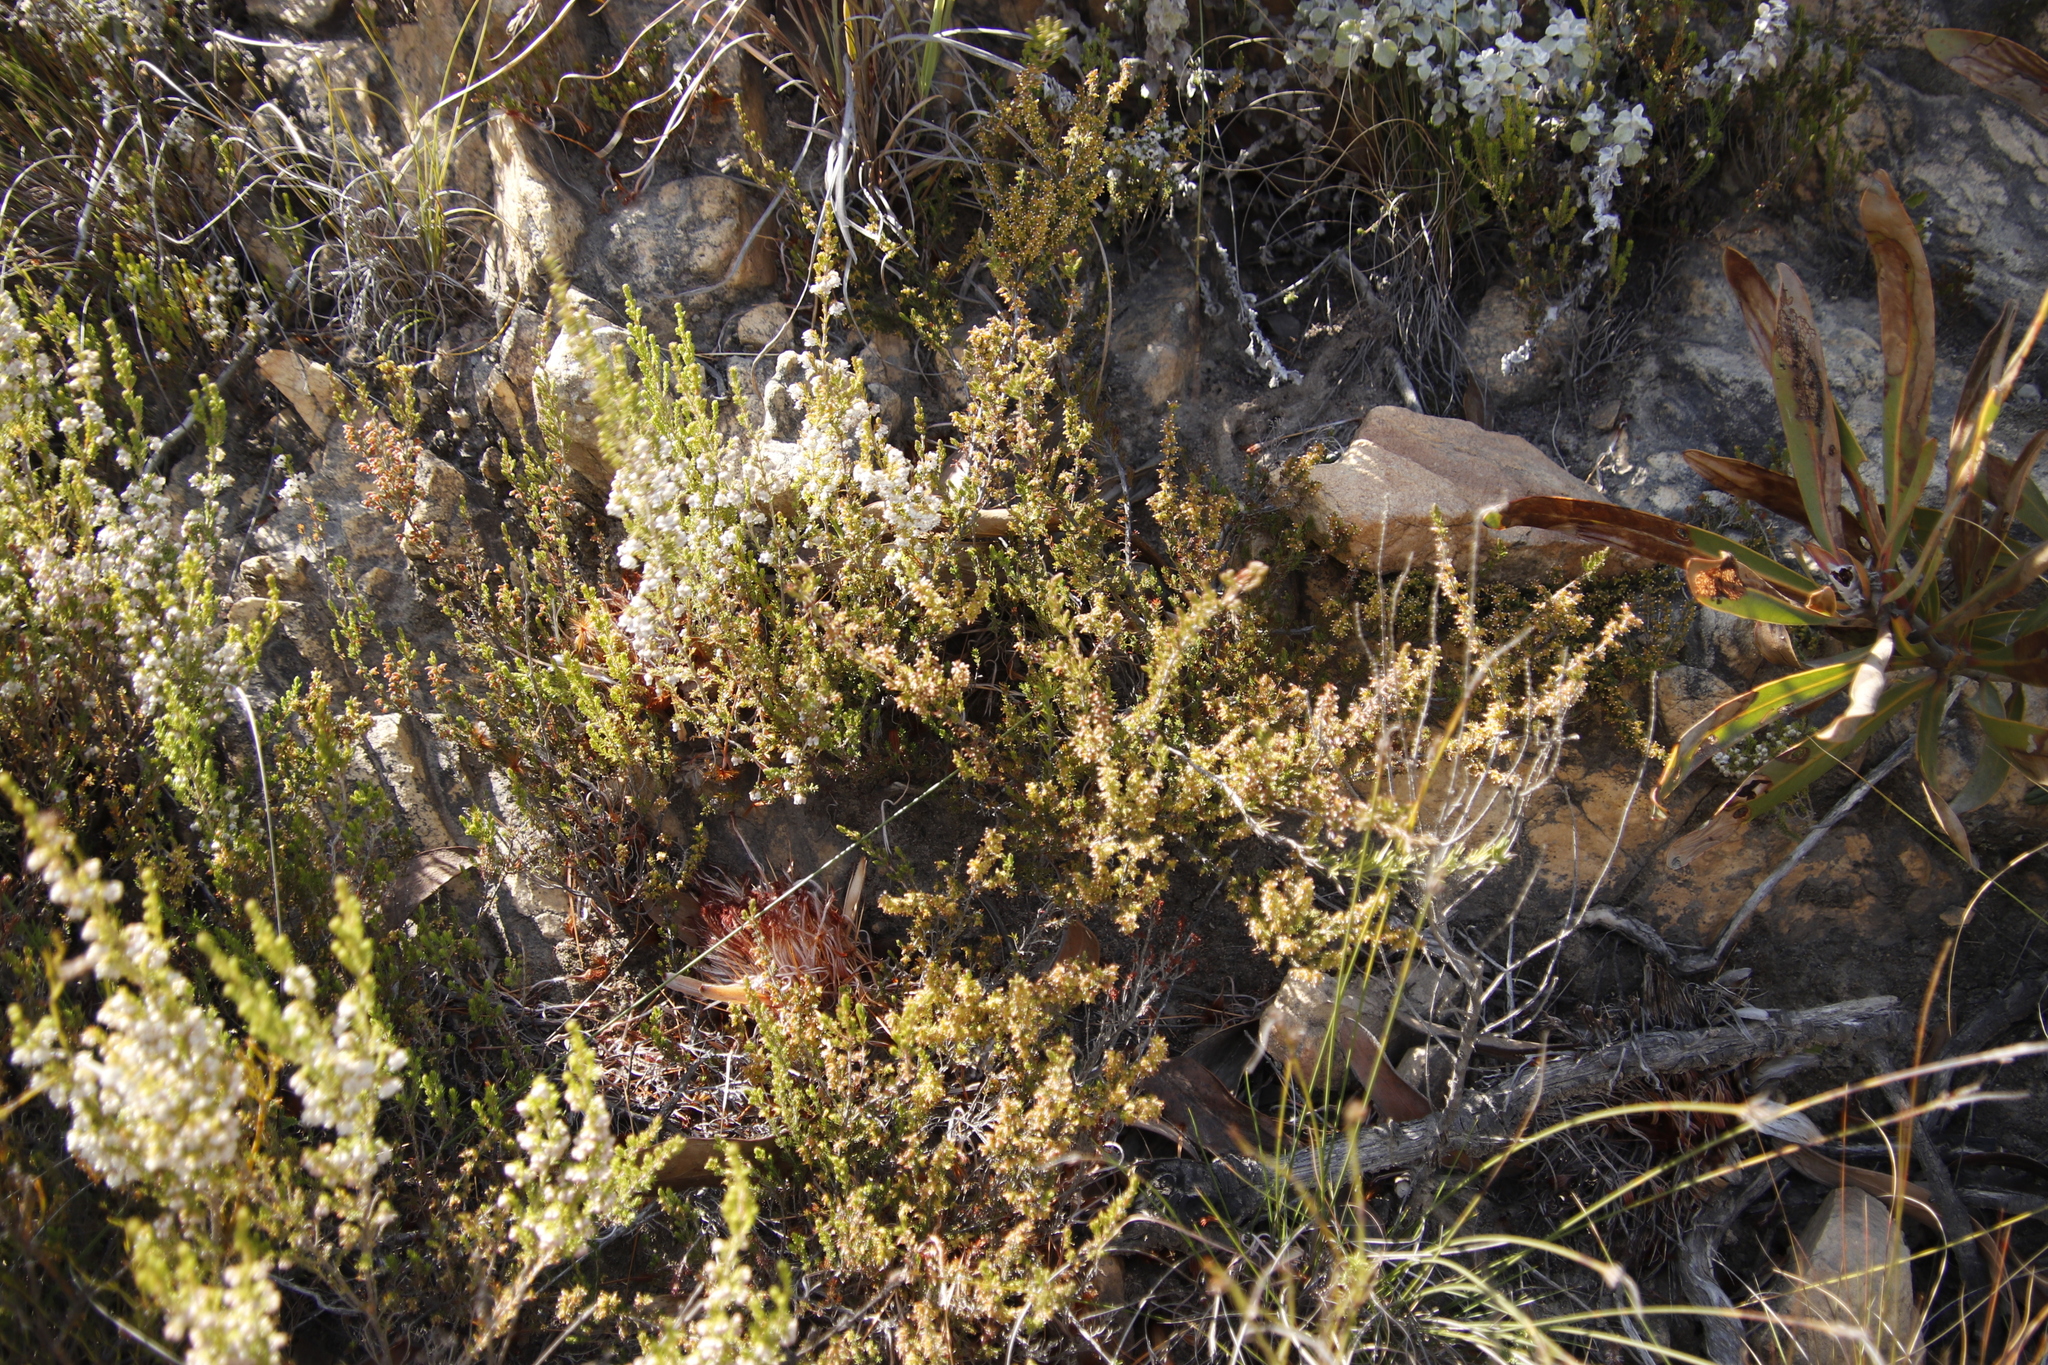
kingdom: Plantae
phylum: Tracheophyta
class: Magnoliopsida
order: Ericales
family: Ericaceae
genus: Erica
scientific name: Erica zwartbergensis
